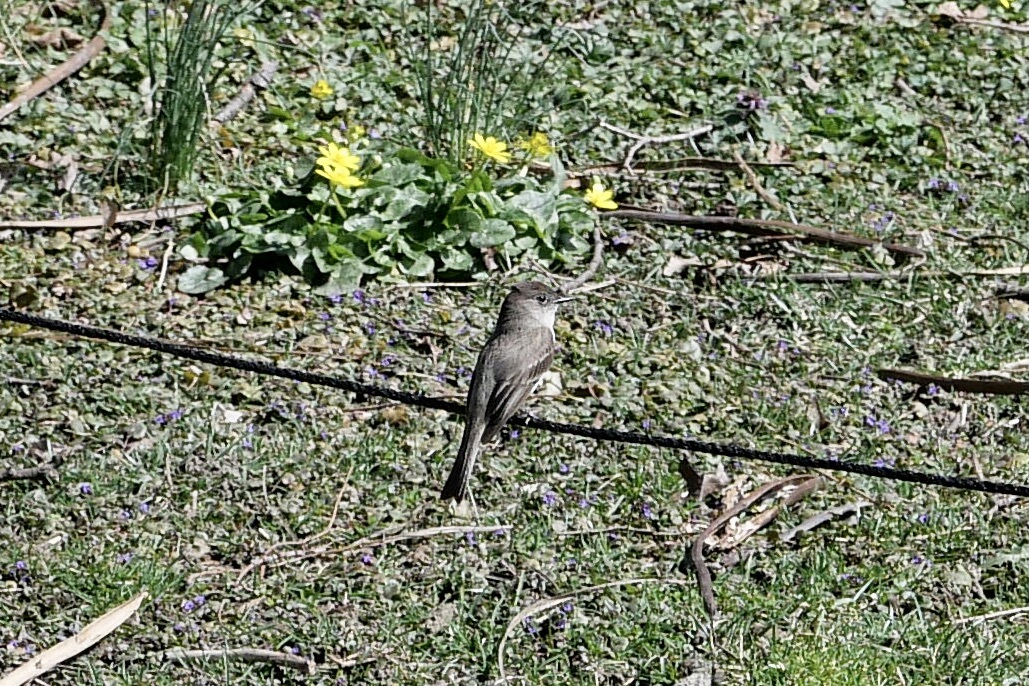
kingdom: Animalia
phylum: Chordata
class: Aves
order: Passeriformes
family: Tyrannidae
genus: Sayornis
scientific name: Sayornis phoebe
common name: Eastern phoebe
